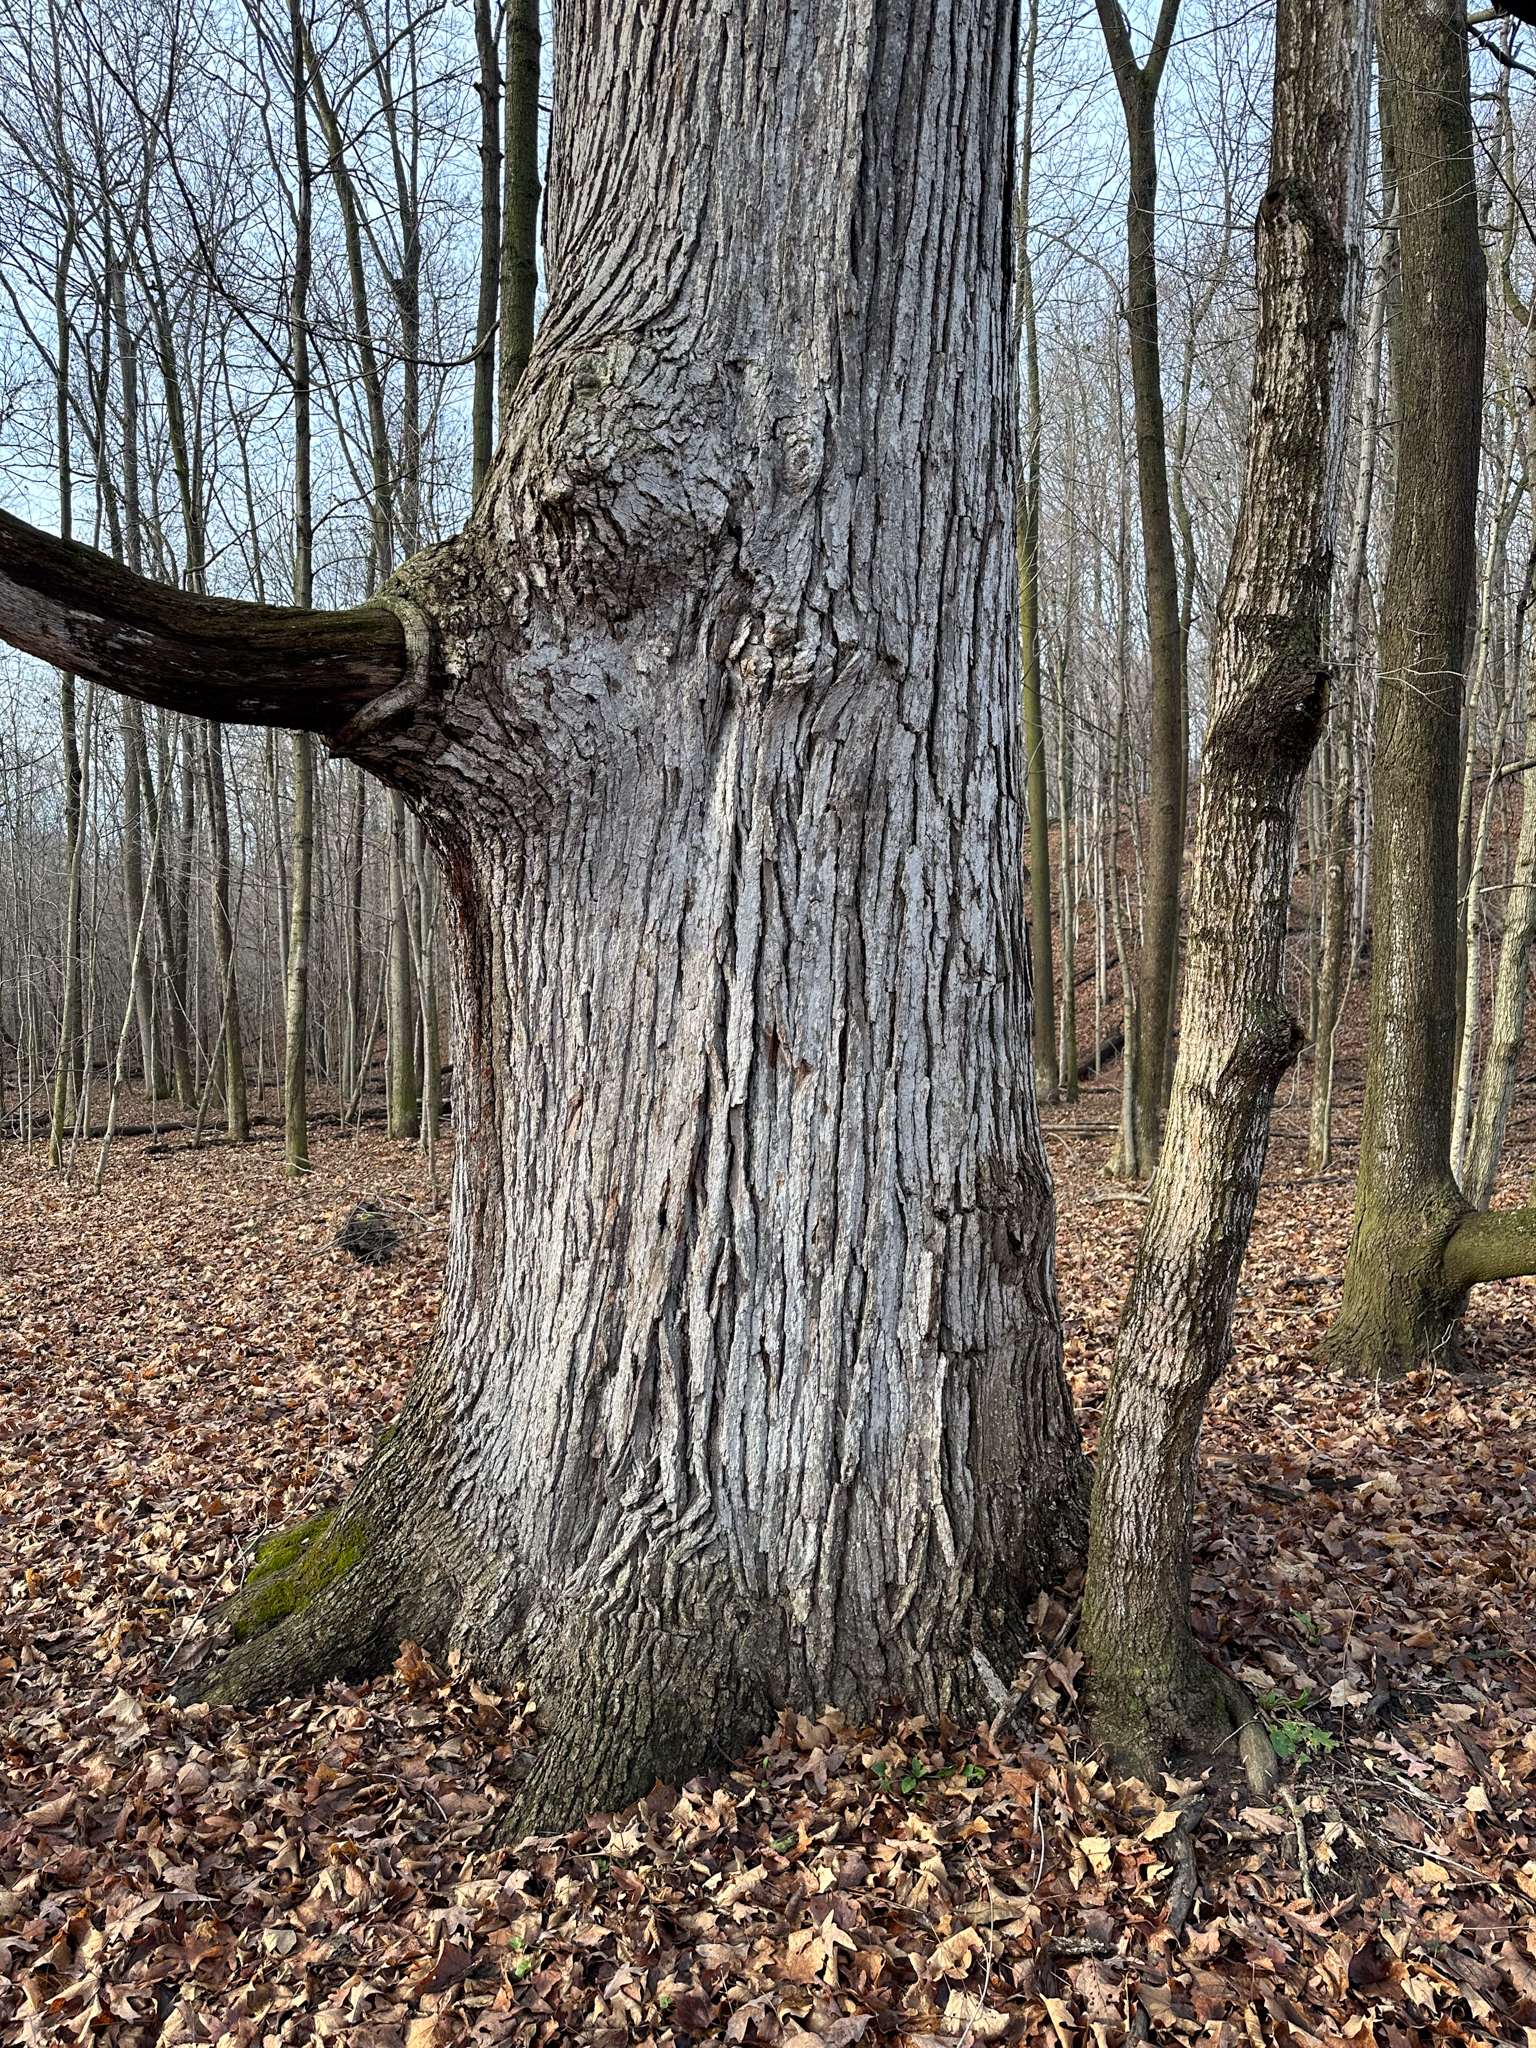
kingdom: Plantae
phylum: Tracheophyta
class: Magnoliopsida
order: Fagales
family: Fagaceae
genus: Quercus
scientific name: Quercus alba
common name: White oak
